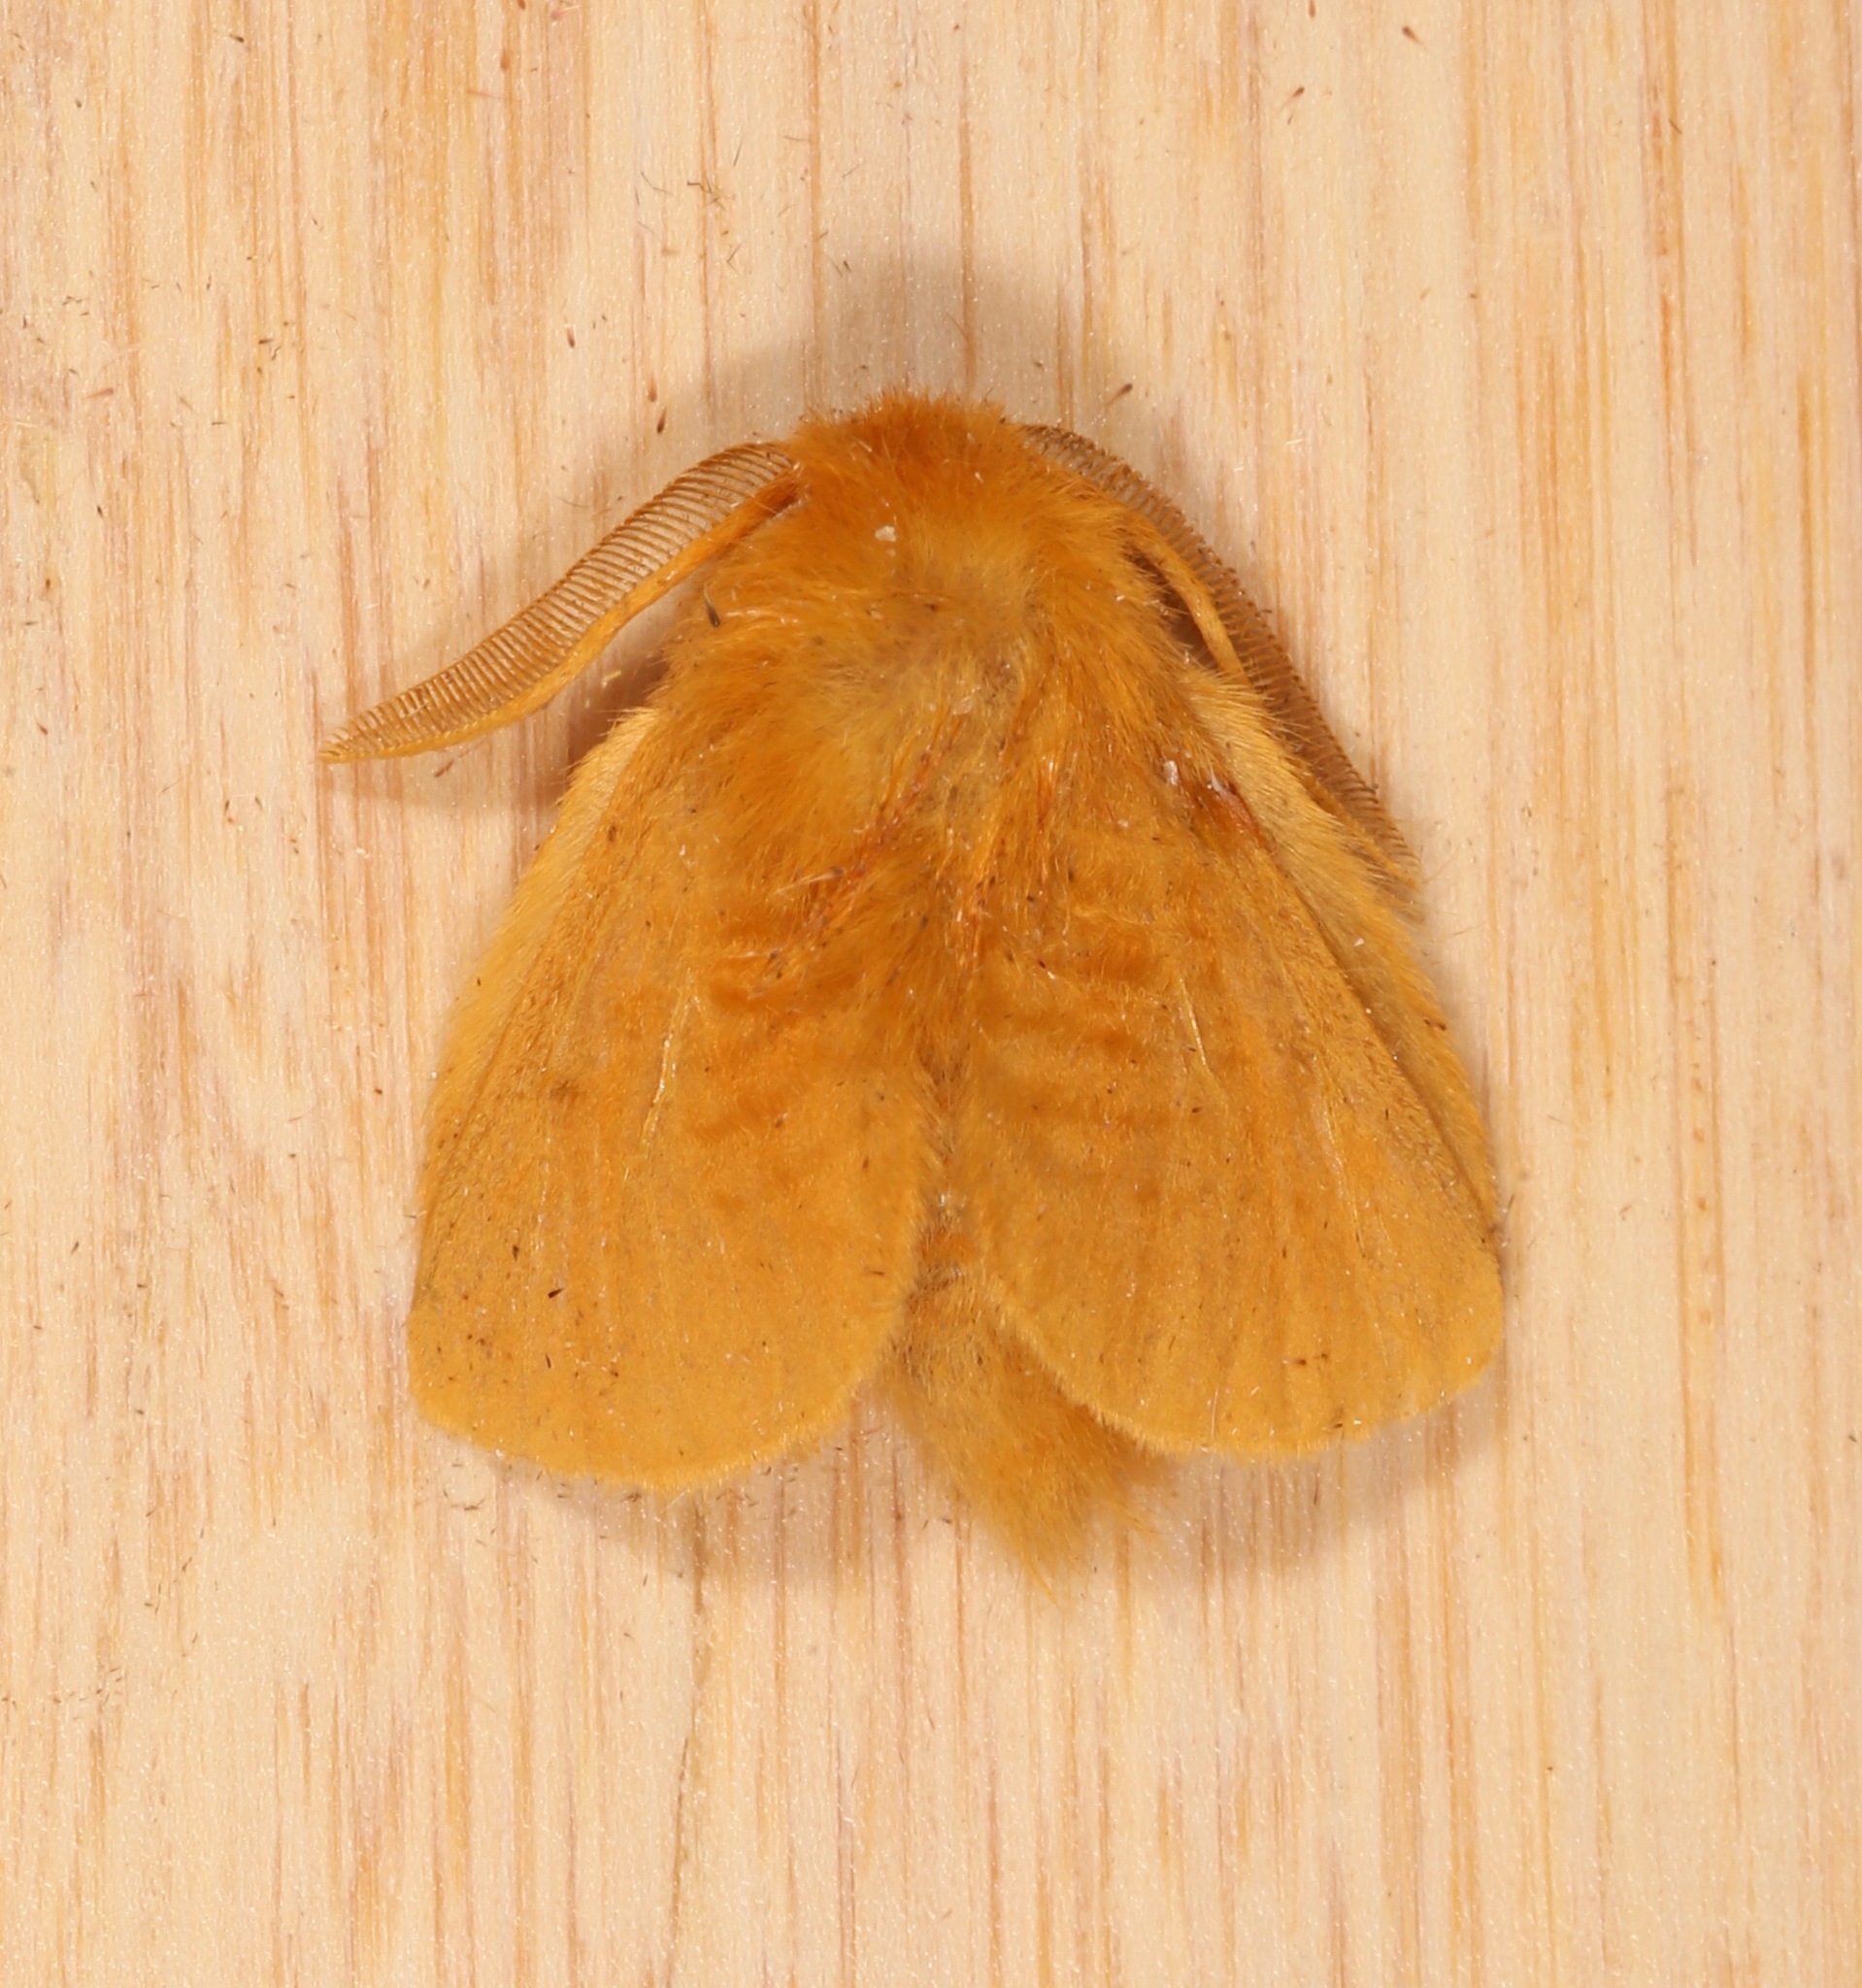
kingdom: Animalia
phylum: Arthropoda
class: Insecta
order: Lepidoptera
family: Megalopygidae
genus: Megalopyge
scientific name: Megalopyge pixidifera
